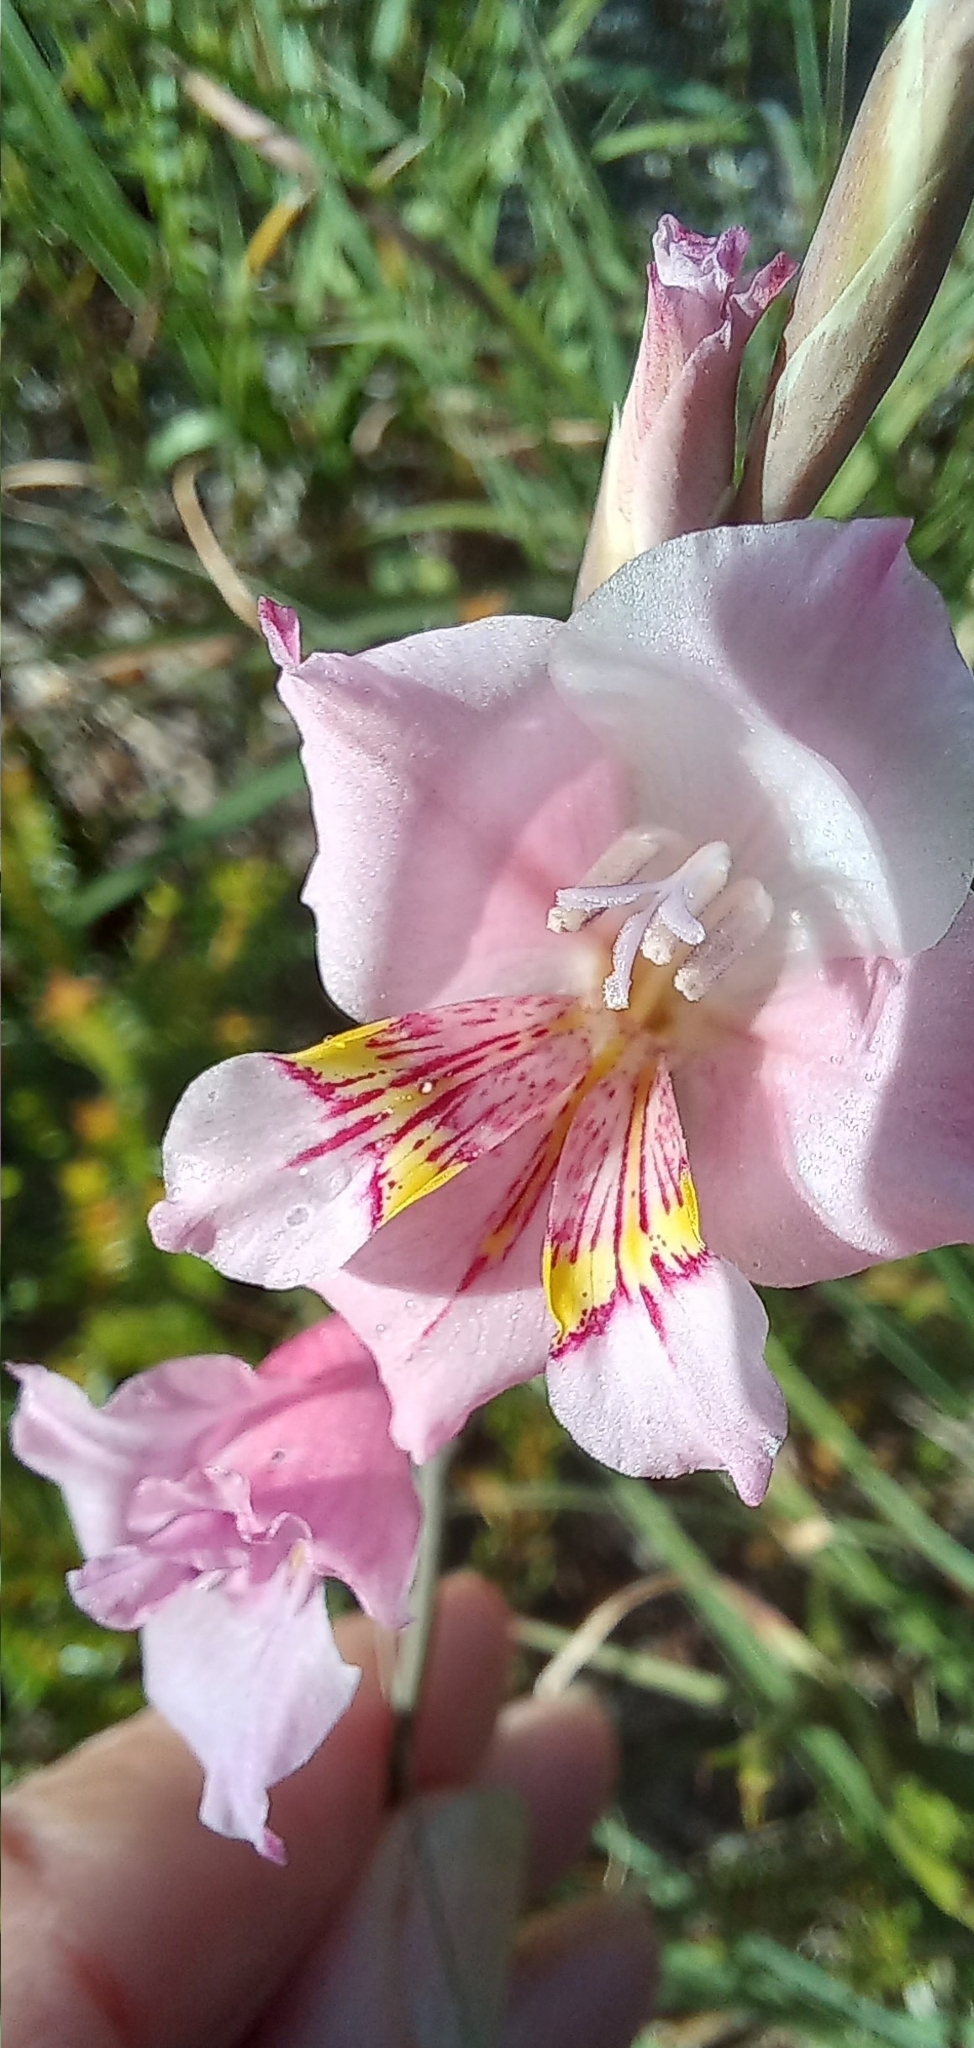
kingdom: Plantae
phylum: Tracheophyta
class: Liliopsida
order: Asparagales
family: Iridaceae
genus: Gladiolus
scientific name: Gladiolus brevifolius
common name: March pypie
